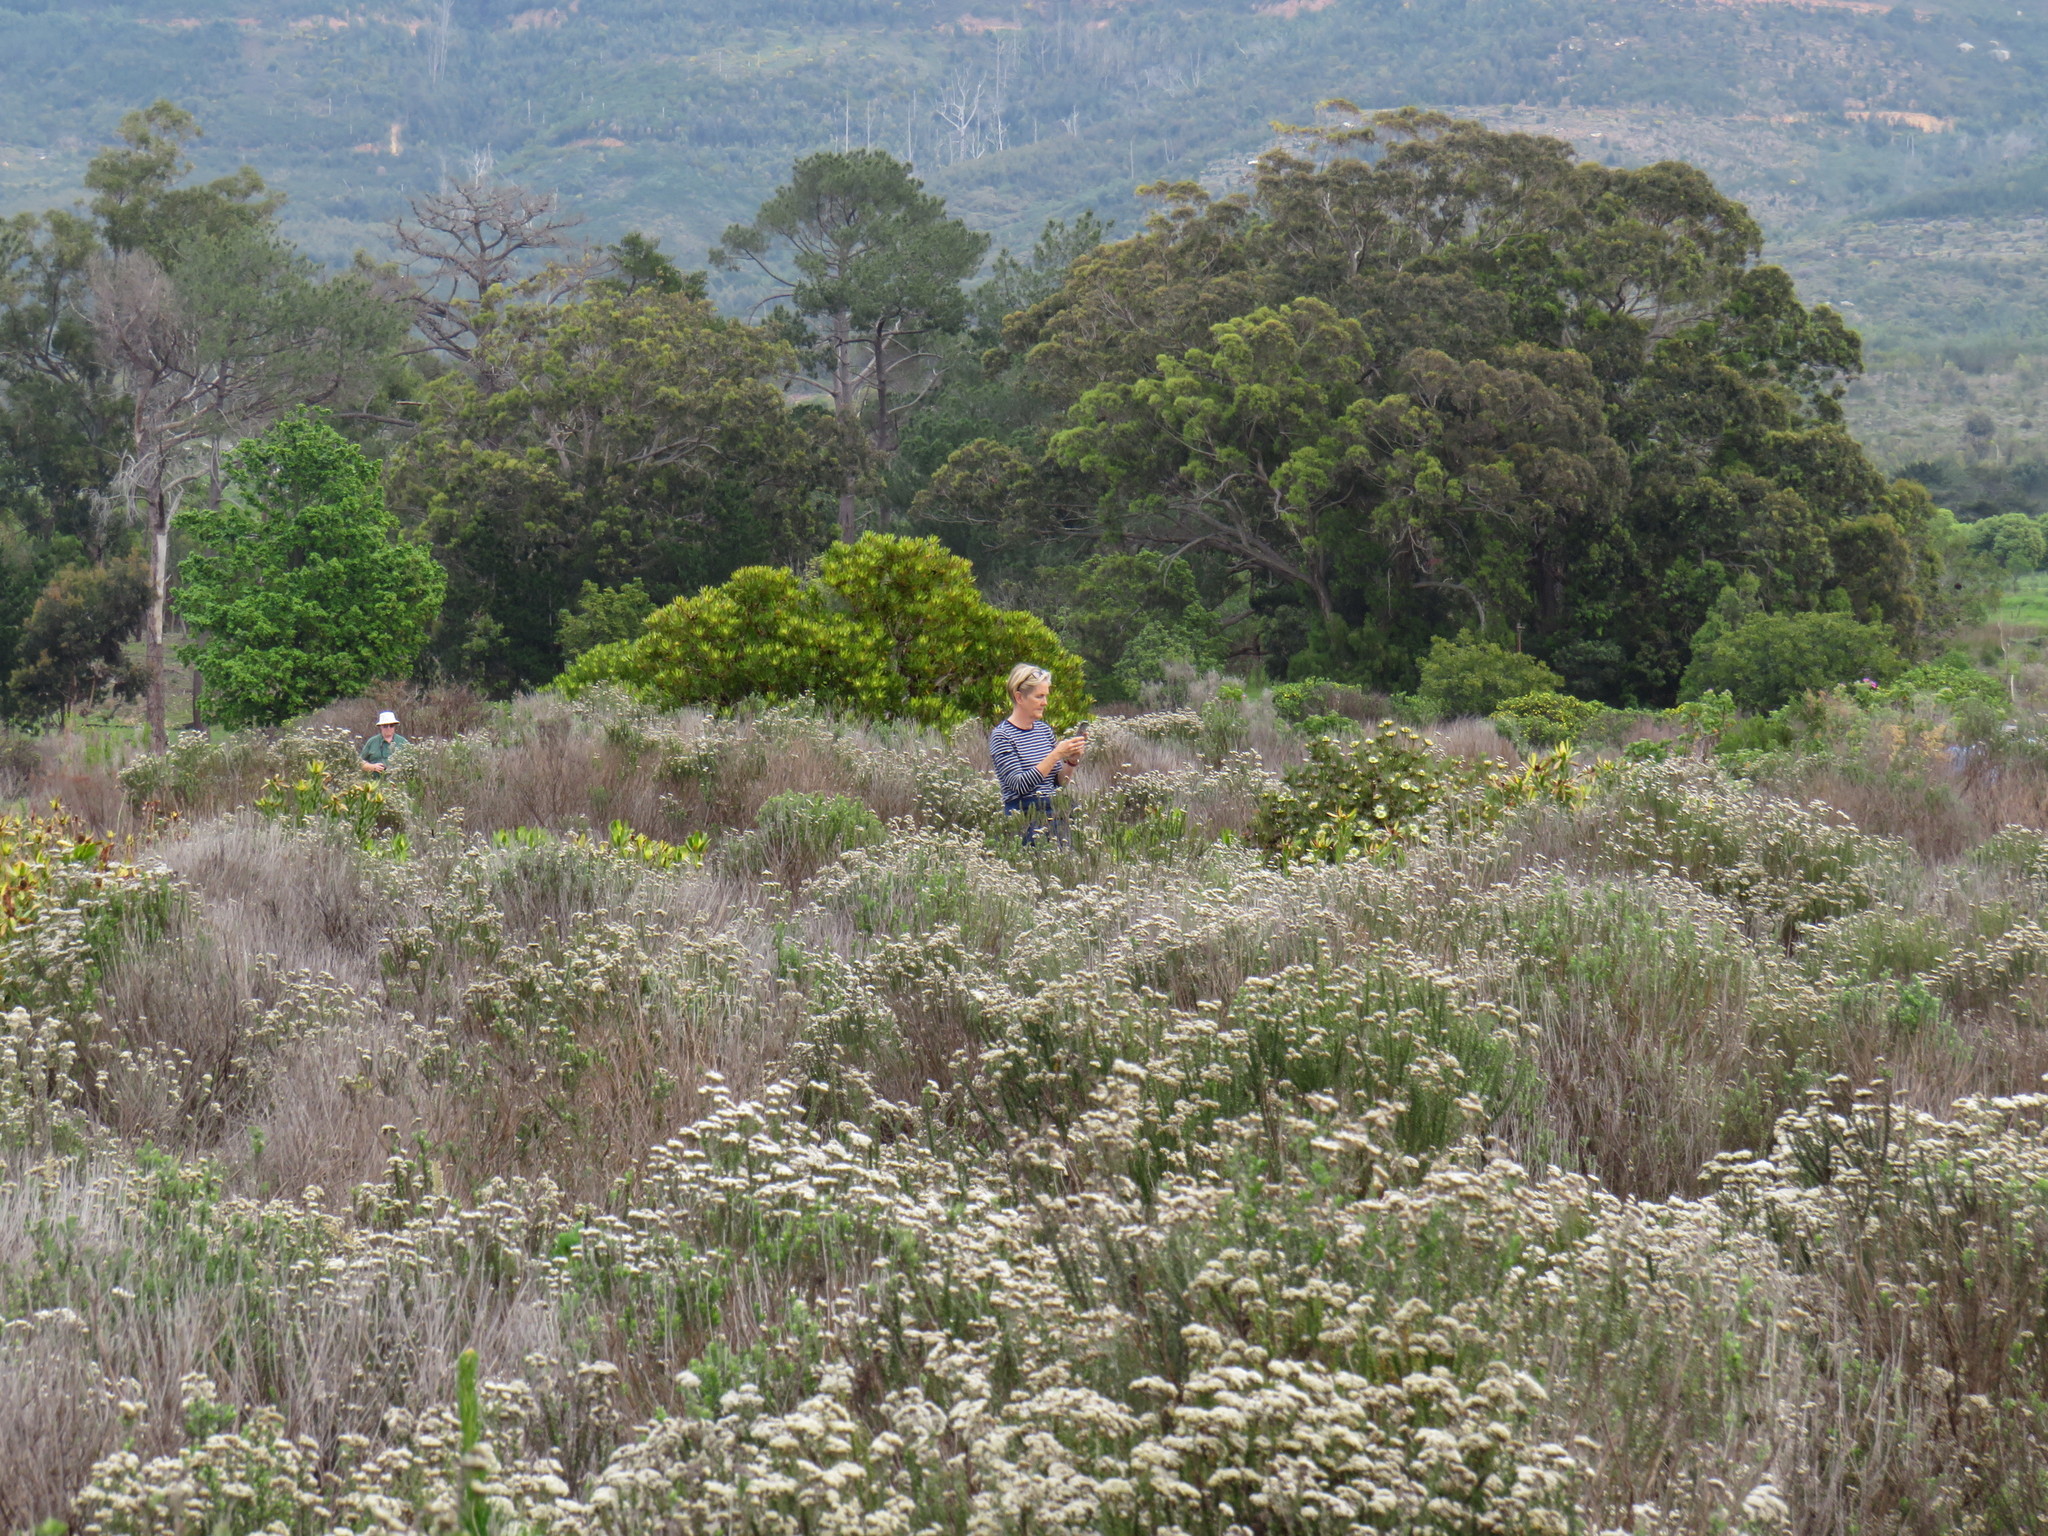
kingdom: Plantae
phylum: Tracheophyta
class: Magnoliopsida
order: Asterales
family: Asteraceae
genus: Metalasia
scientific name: Metalasia densa
